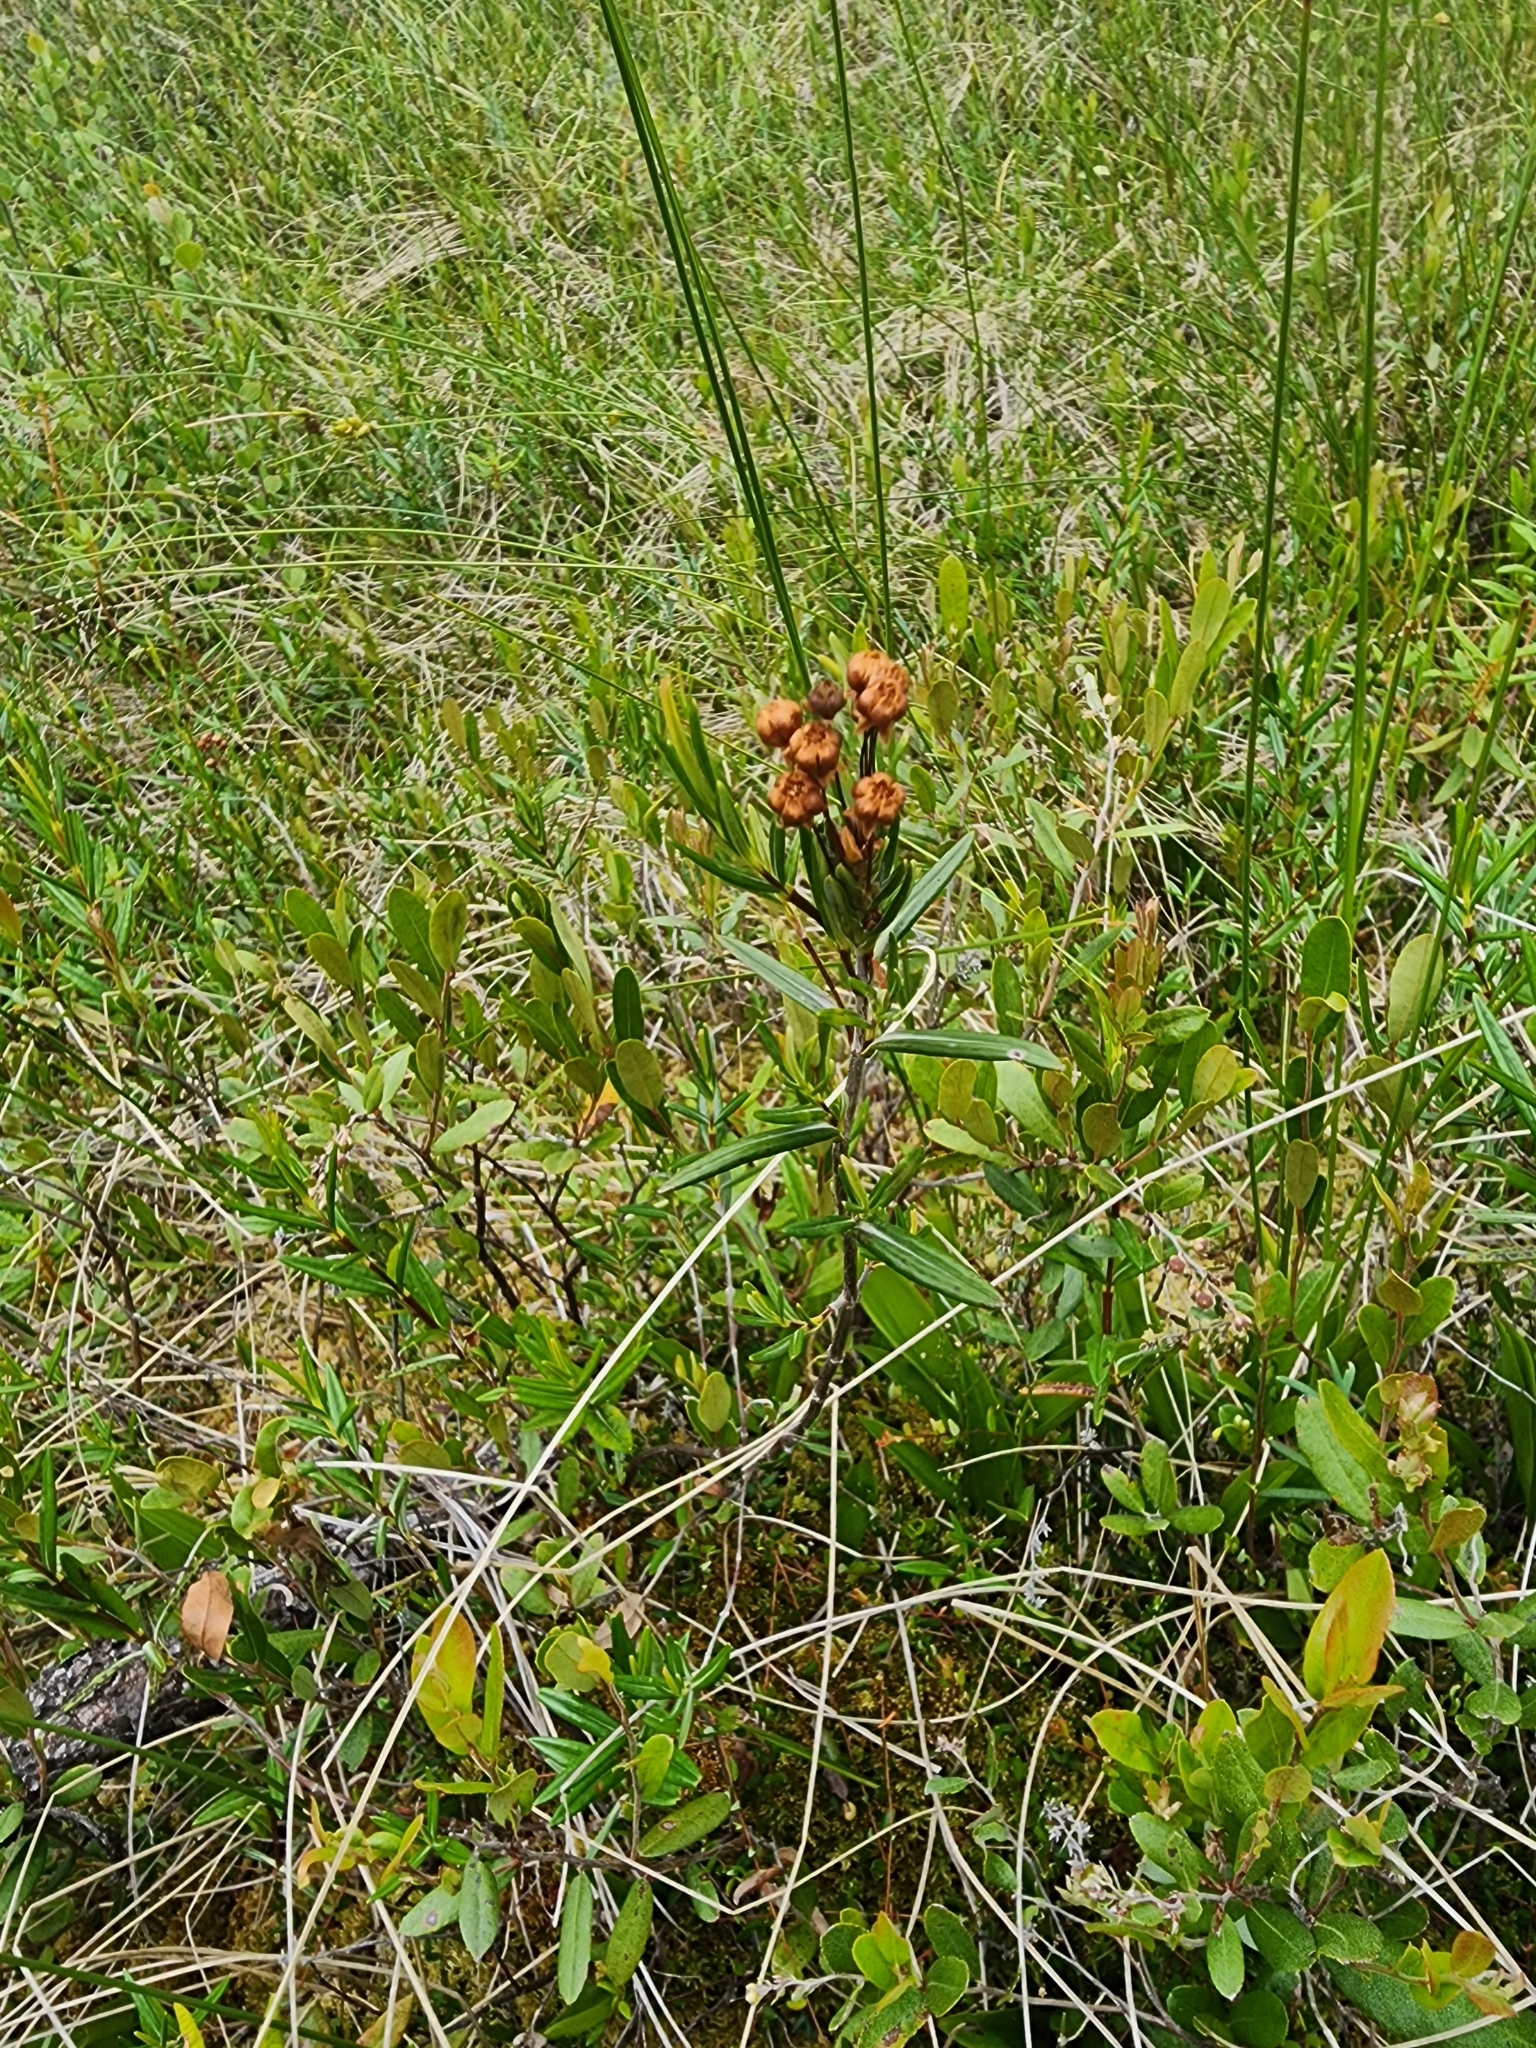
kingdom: Plantae
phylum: Tracheophyta
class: Magnoliopsida
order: Ericales
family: Ericaceae
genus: Kalmia
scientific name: Kalmia polifolia
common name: Bog-laurel
